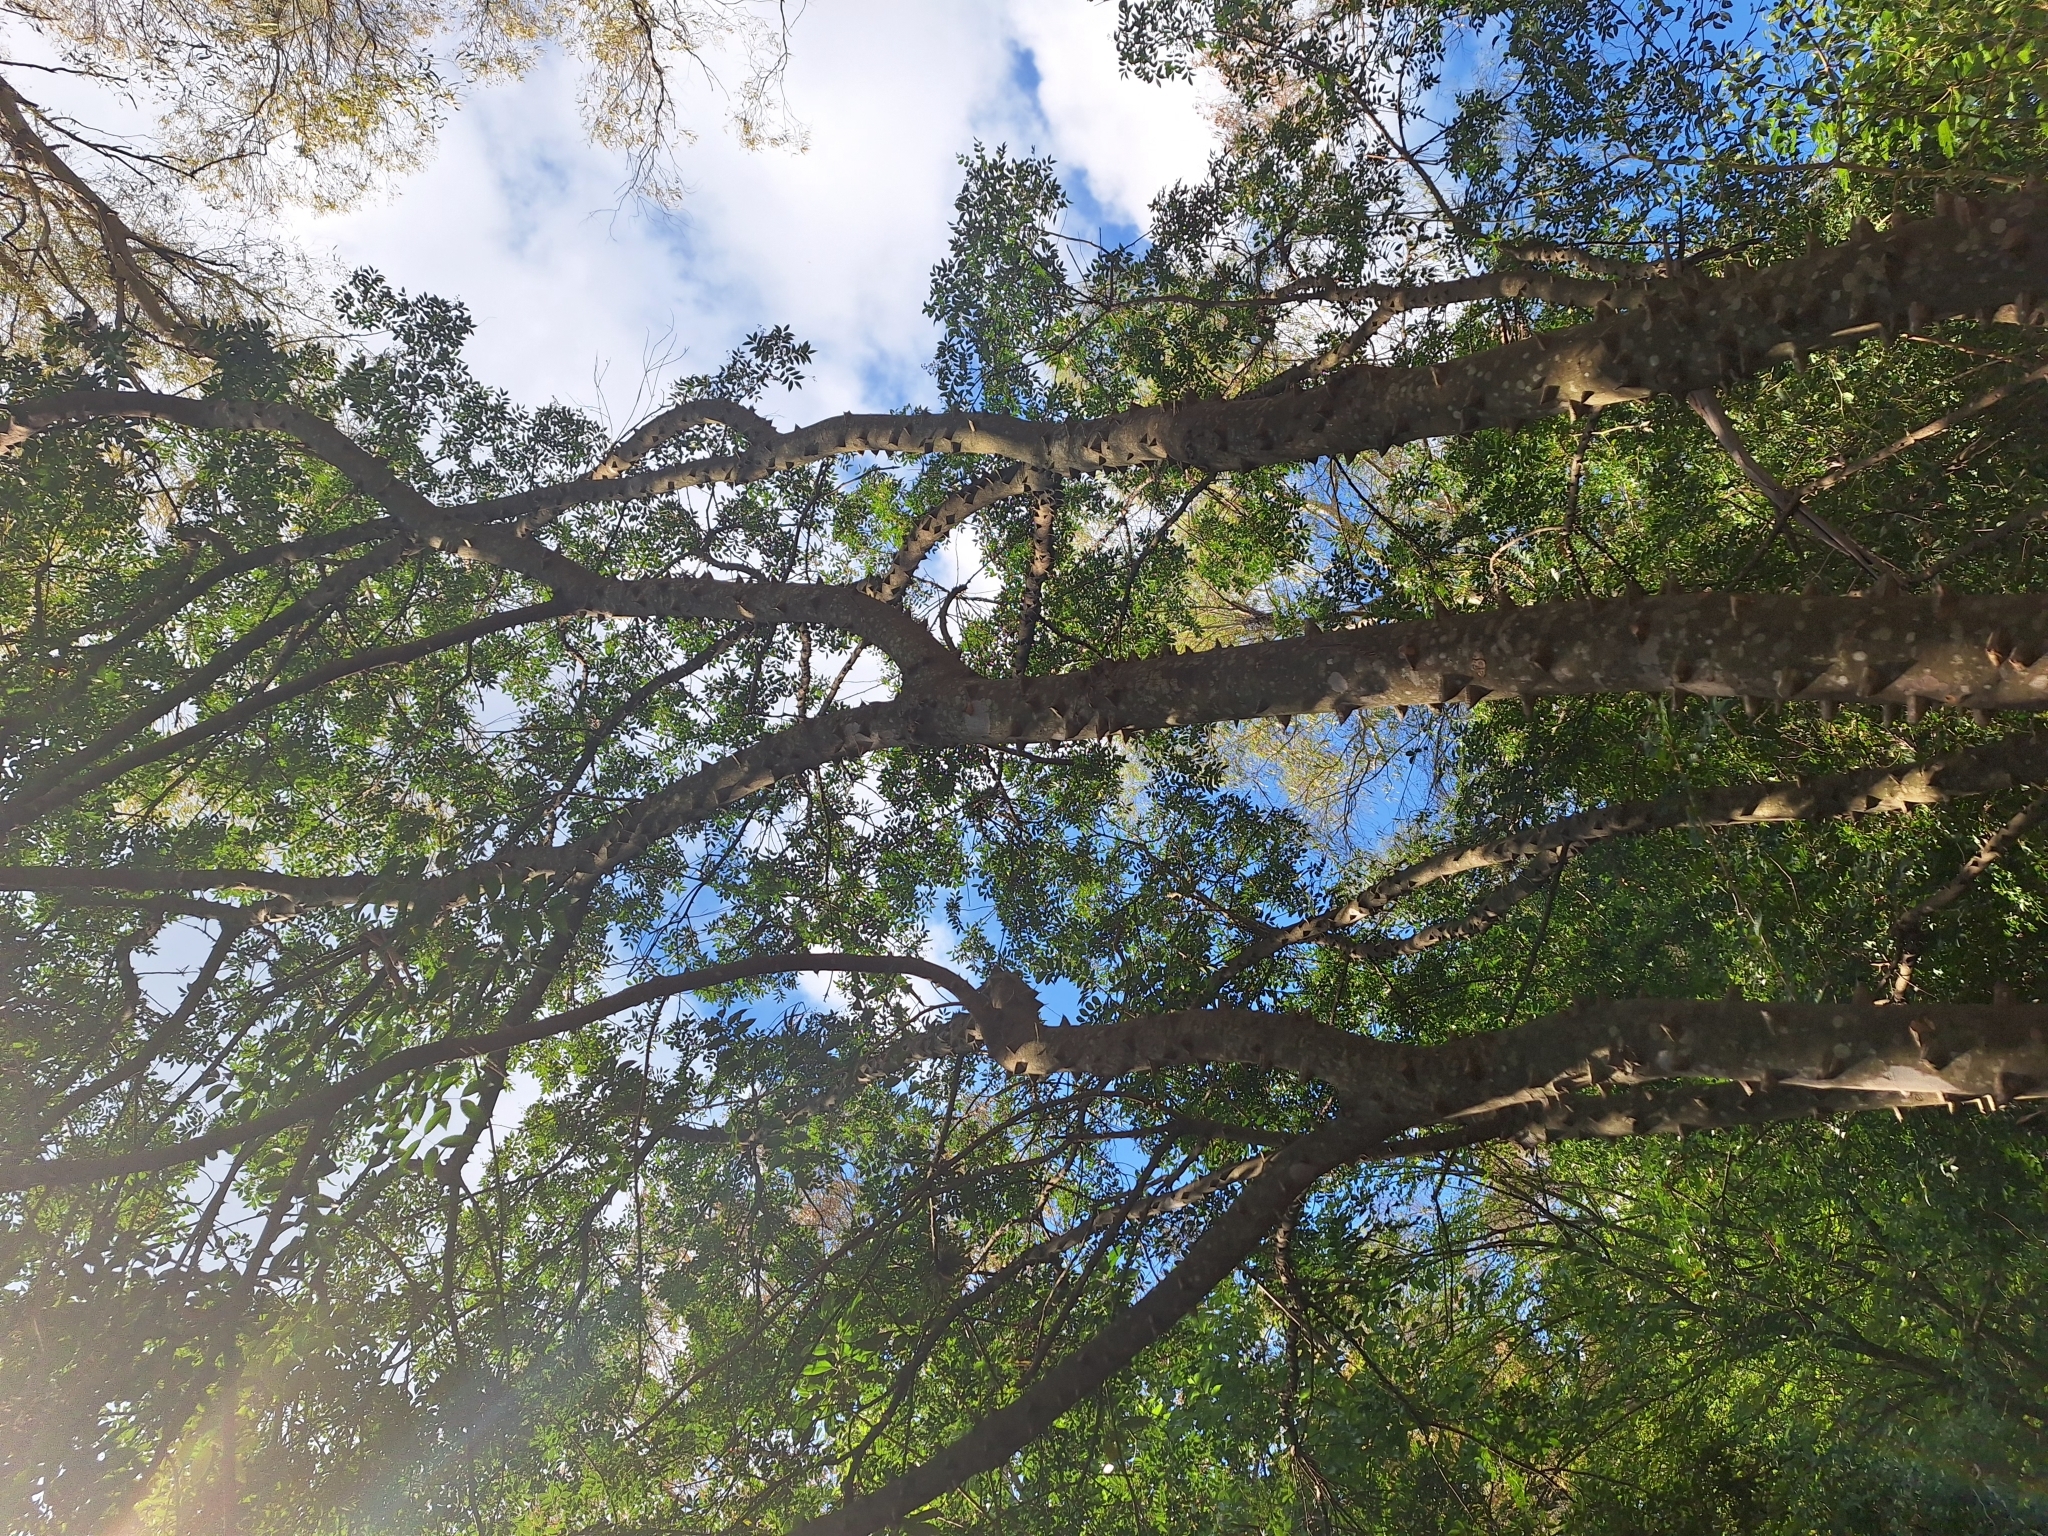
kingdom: Plantae
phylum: Tracheophyta
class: Magnoliopsida
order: Sapindales
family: Rutaceae
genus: Zanthoxylum
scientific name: Zanthoxylum rhoifolium
